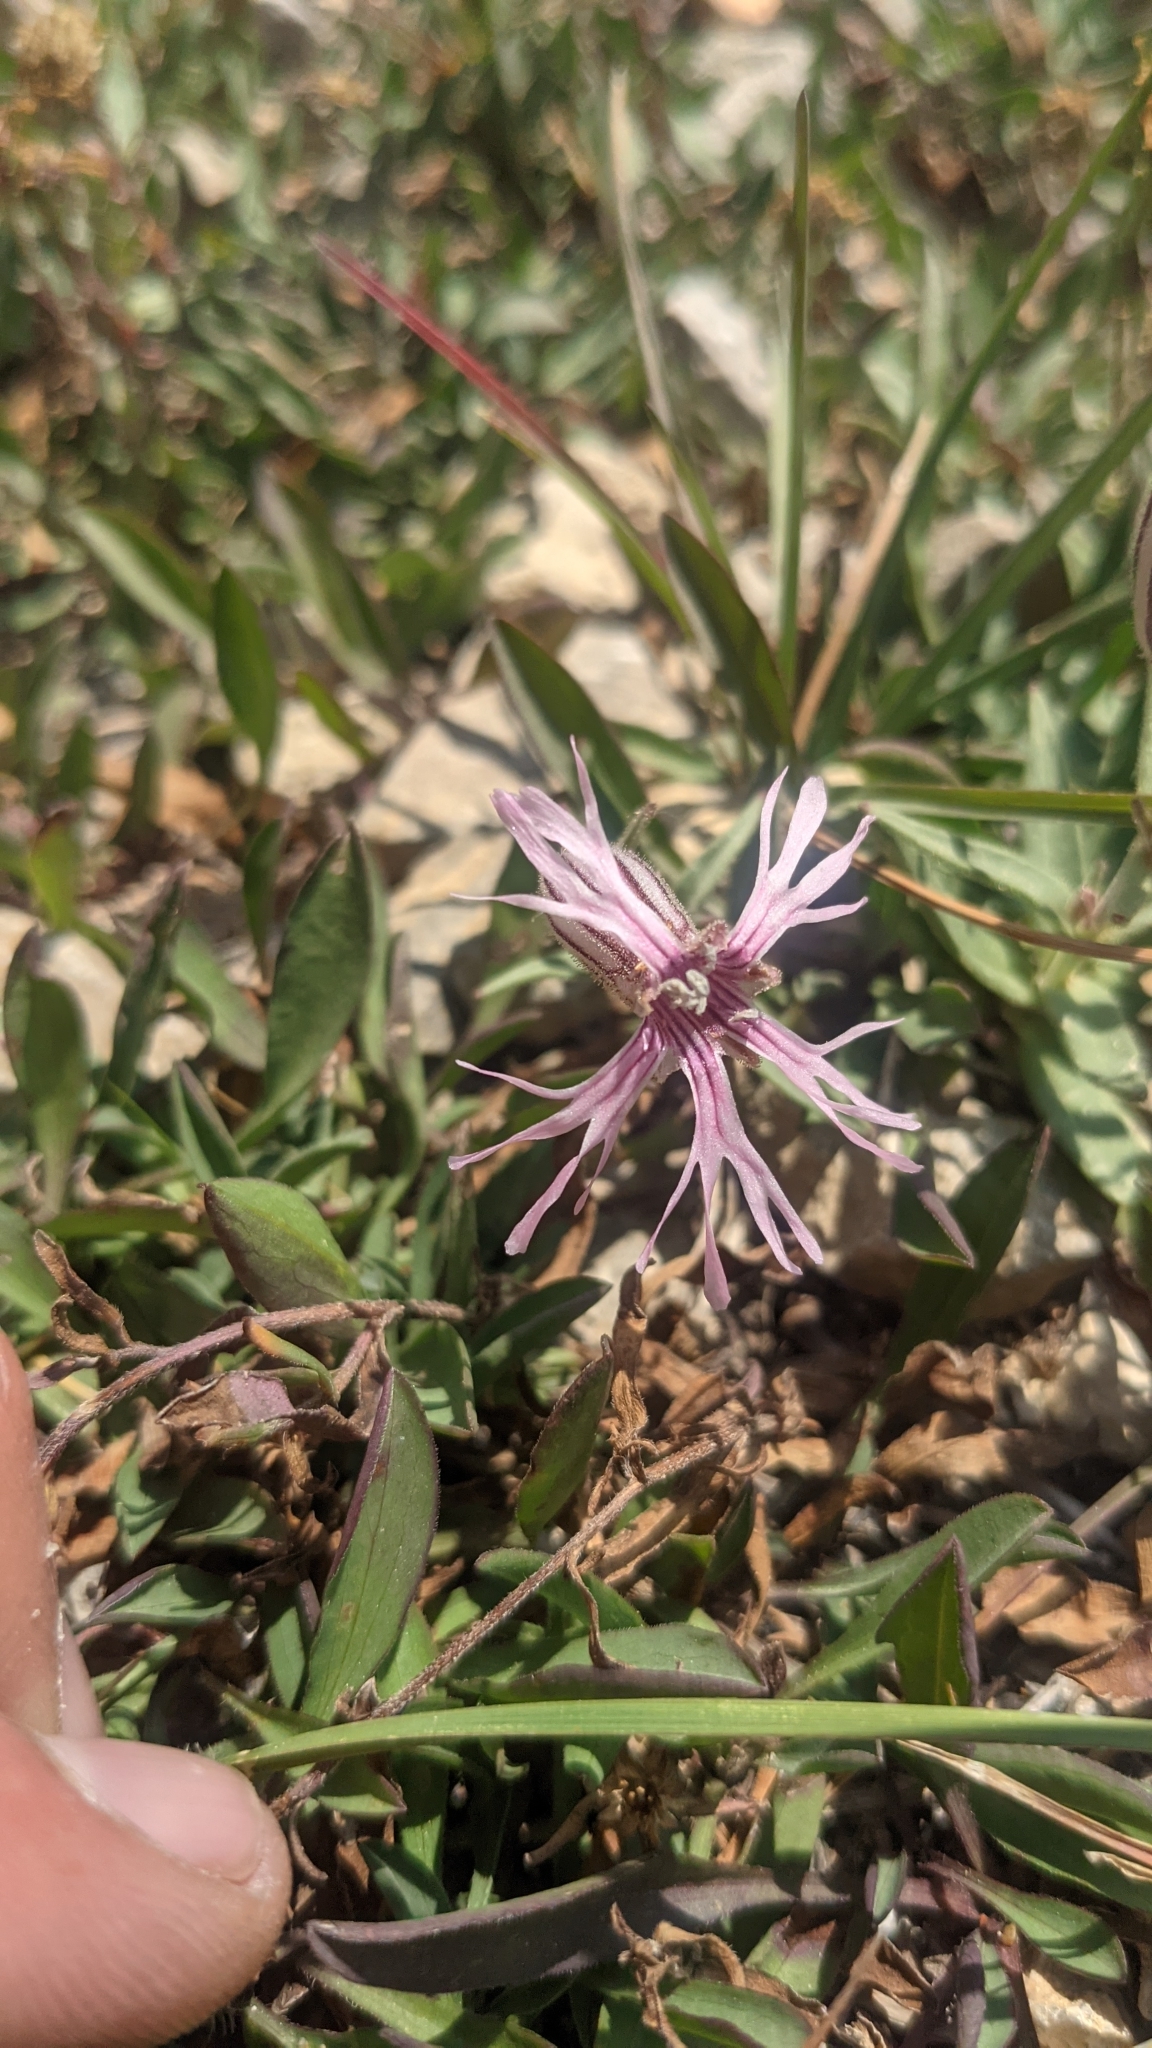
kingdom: Plantae
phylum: Tracheophyta
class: Magnoliopsida
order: Caryophyllales
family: Caryophyllaceae
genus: Silene
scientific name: Silene petersonii
